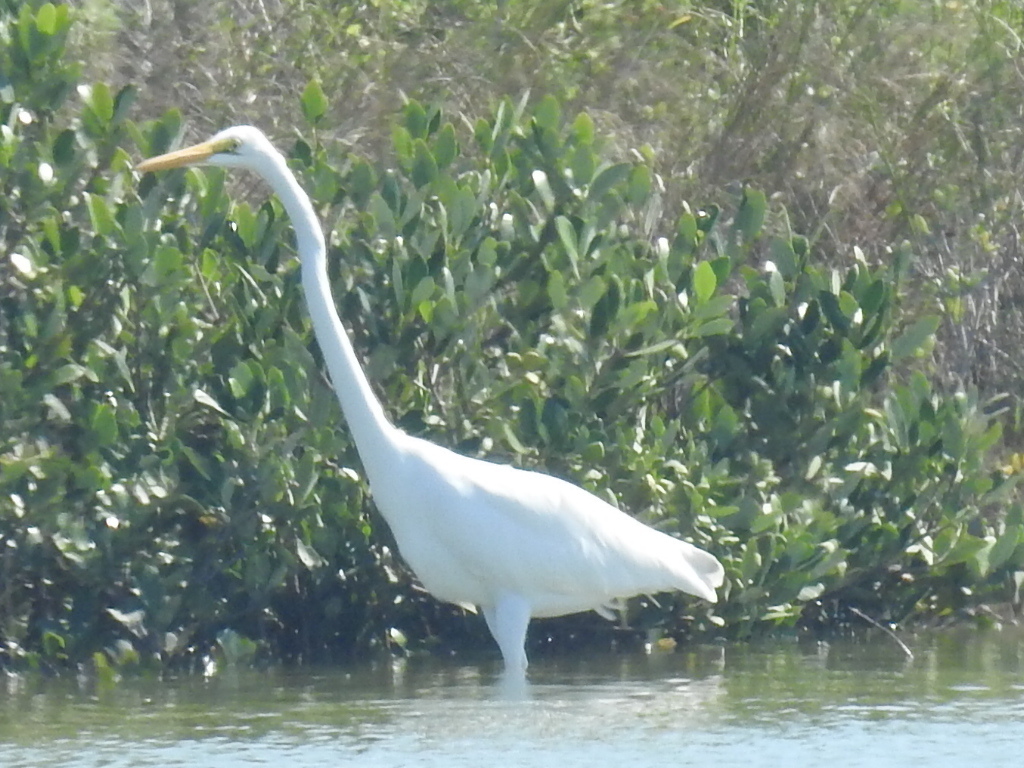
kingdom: Animalia
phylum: Chordata
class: Aves
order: Pelecaniformes
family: Ardeidae
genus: Ardea
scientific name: Ardea alba
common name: Great egret
